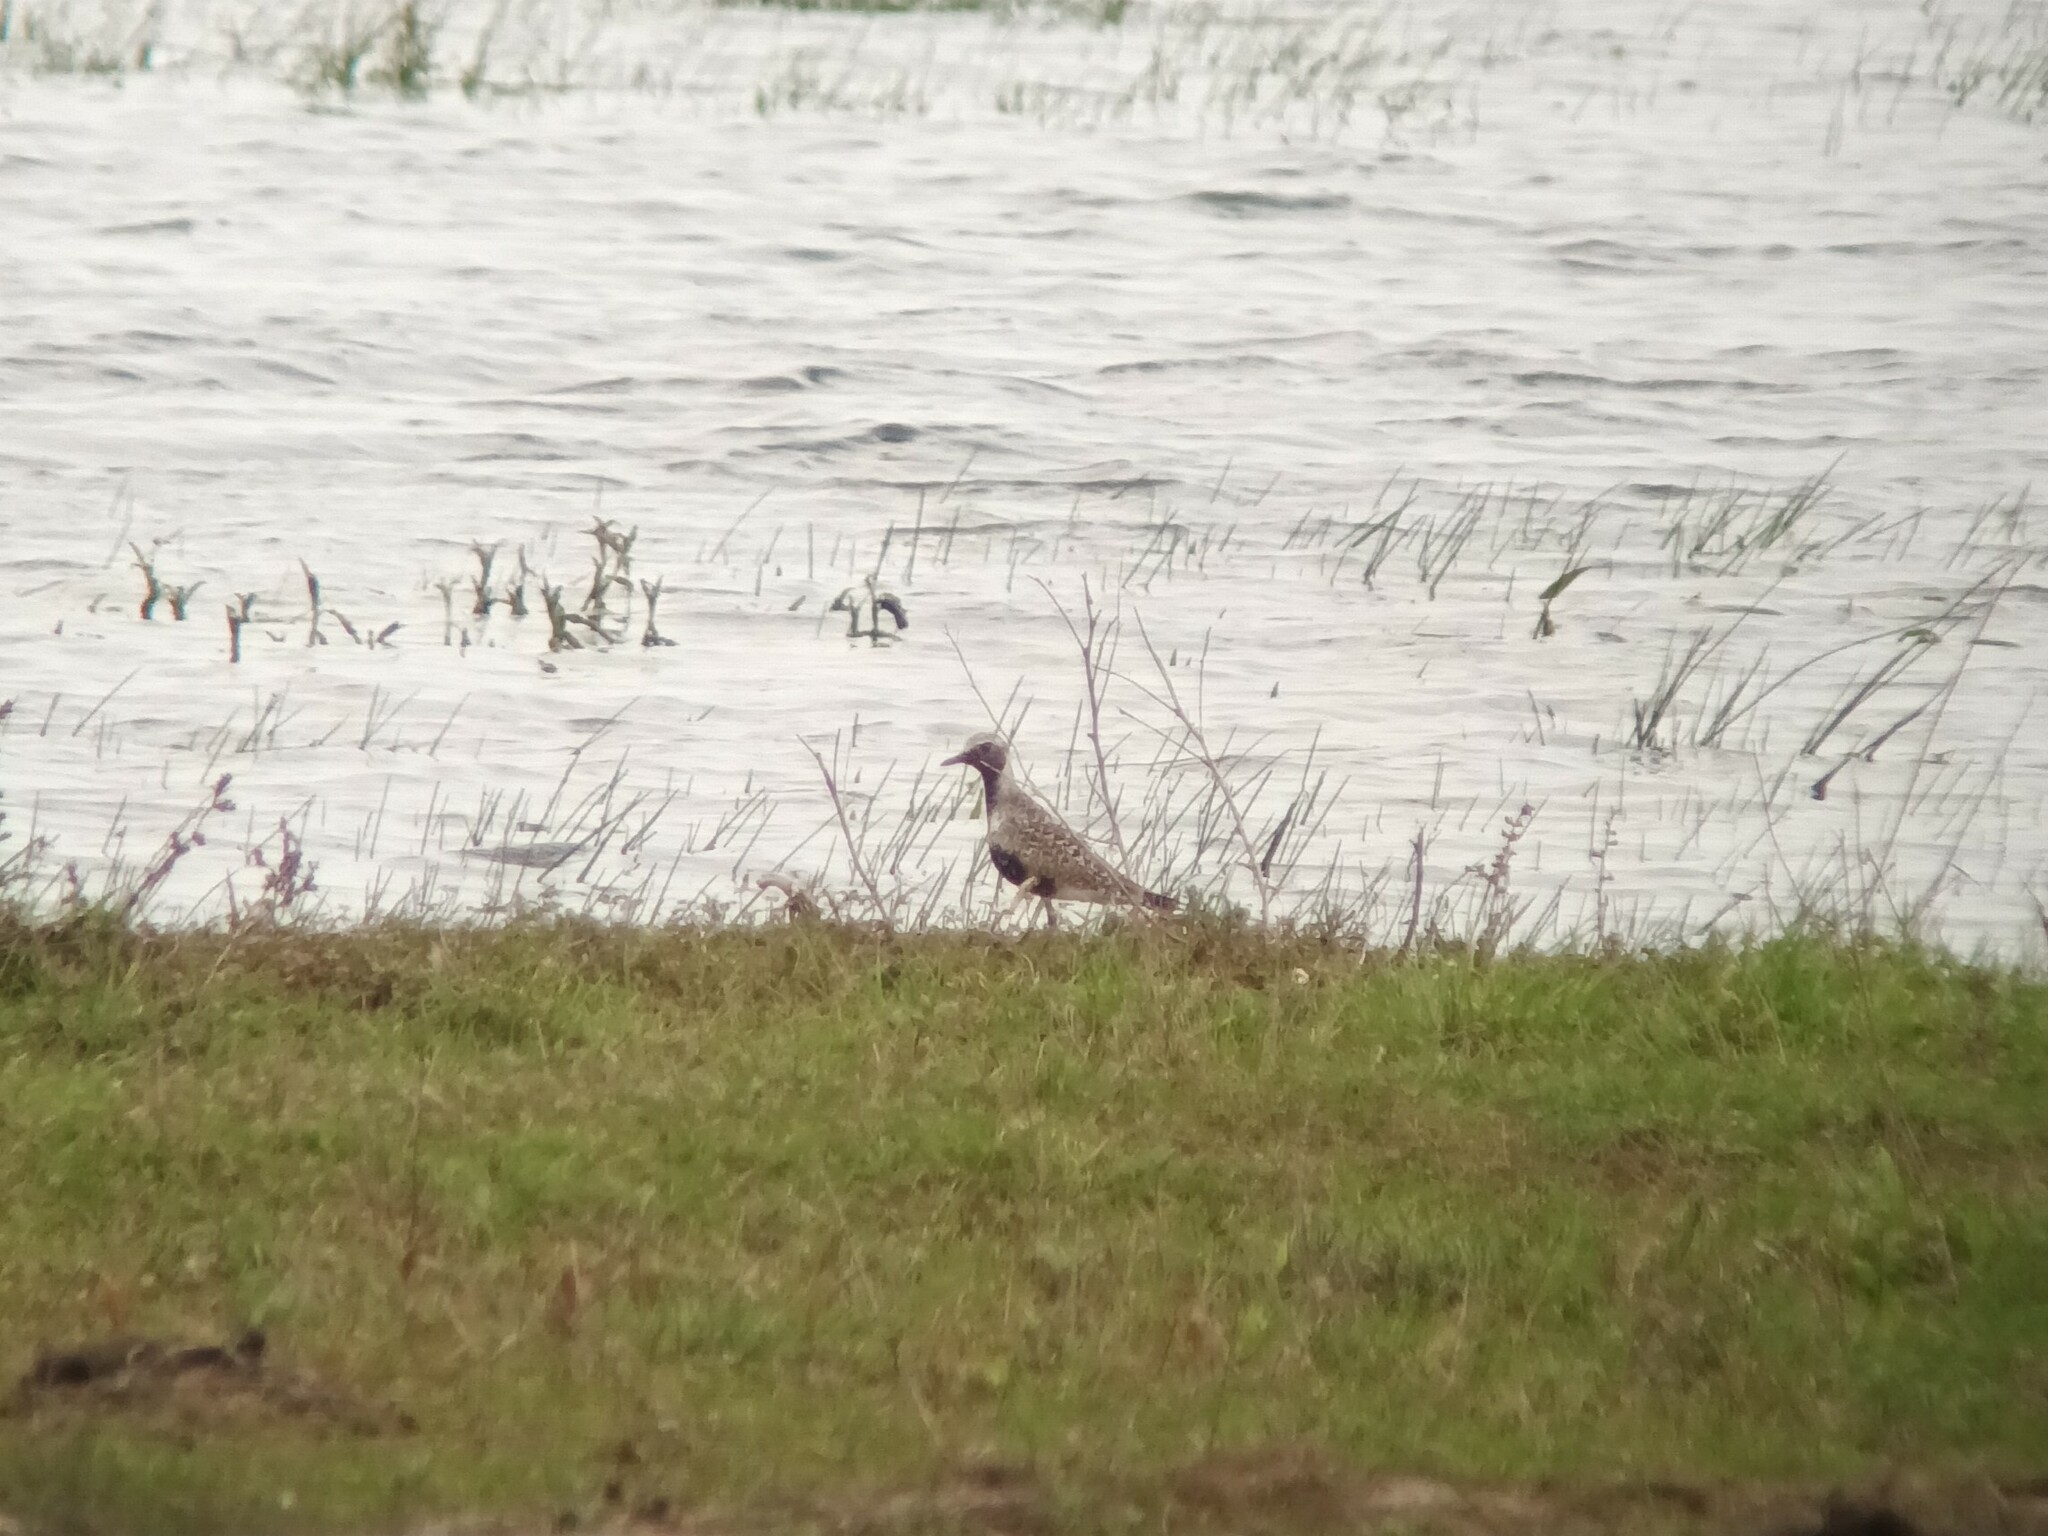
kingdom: Animalia
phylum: Chordata
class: Aves
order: Charadriiformes
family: Charadriidae
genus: Pluvialis
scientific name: Pluvialis squatarola
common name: Grey plover
